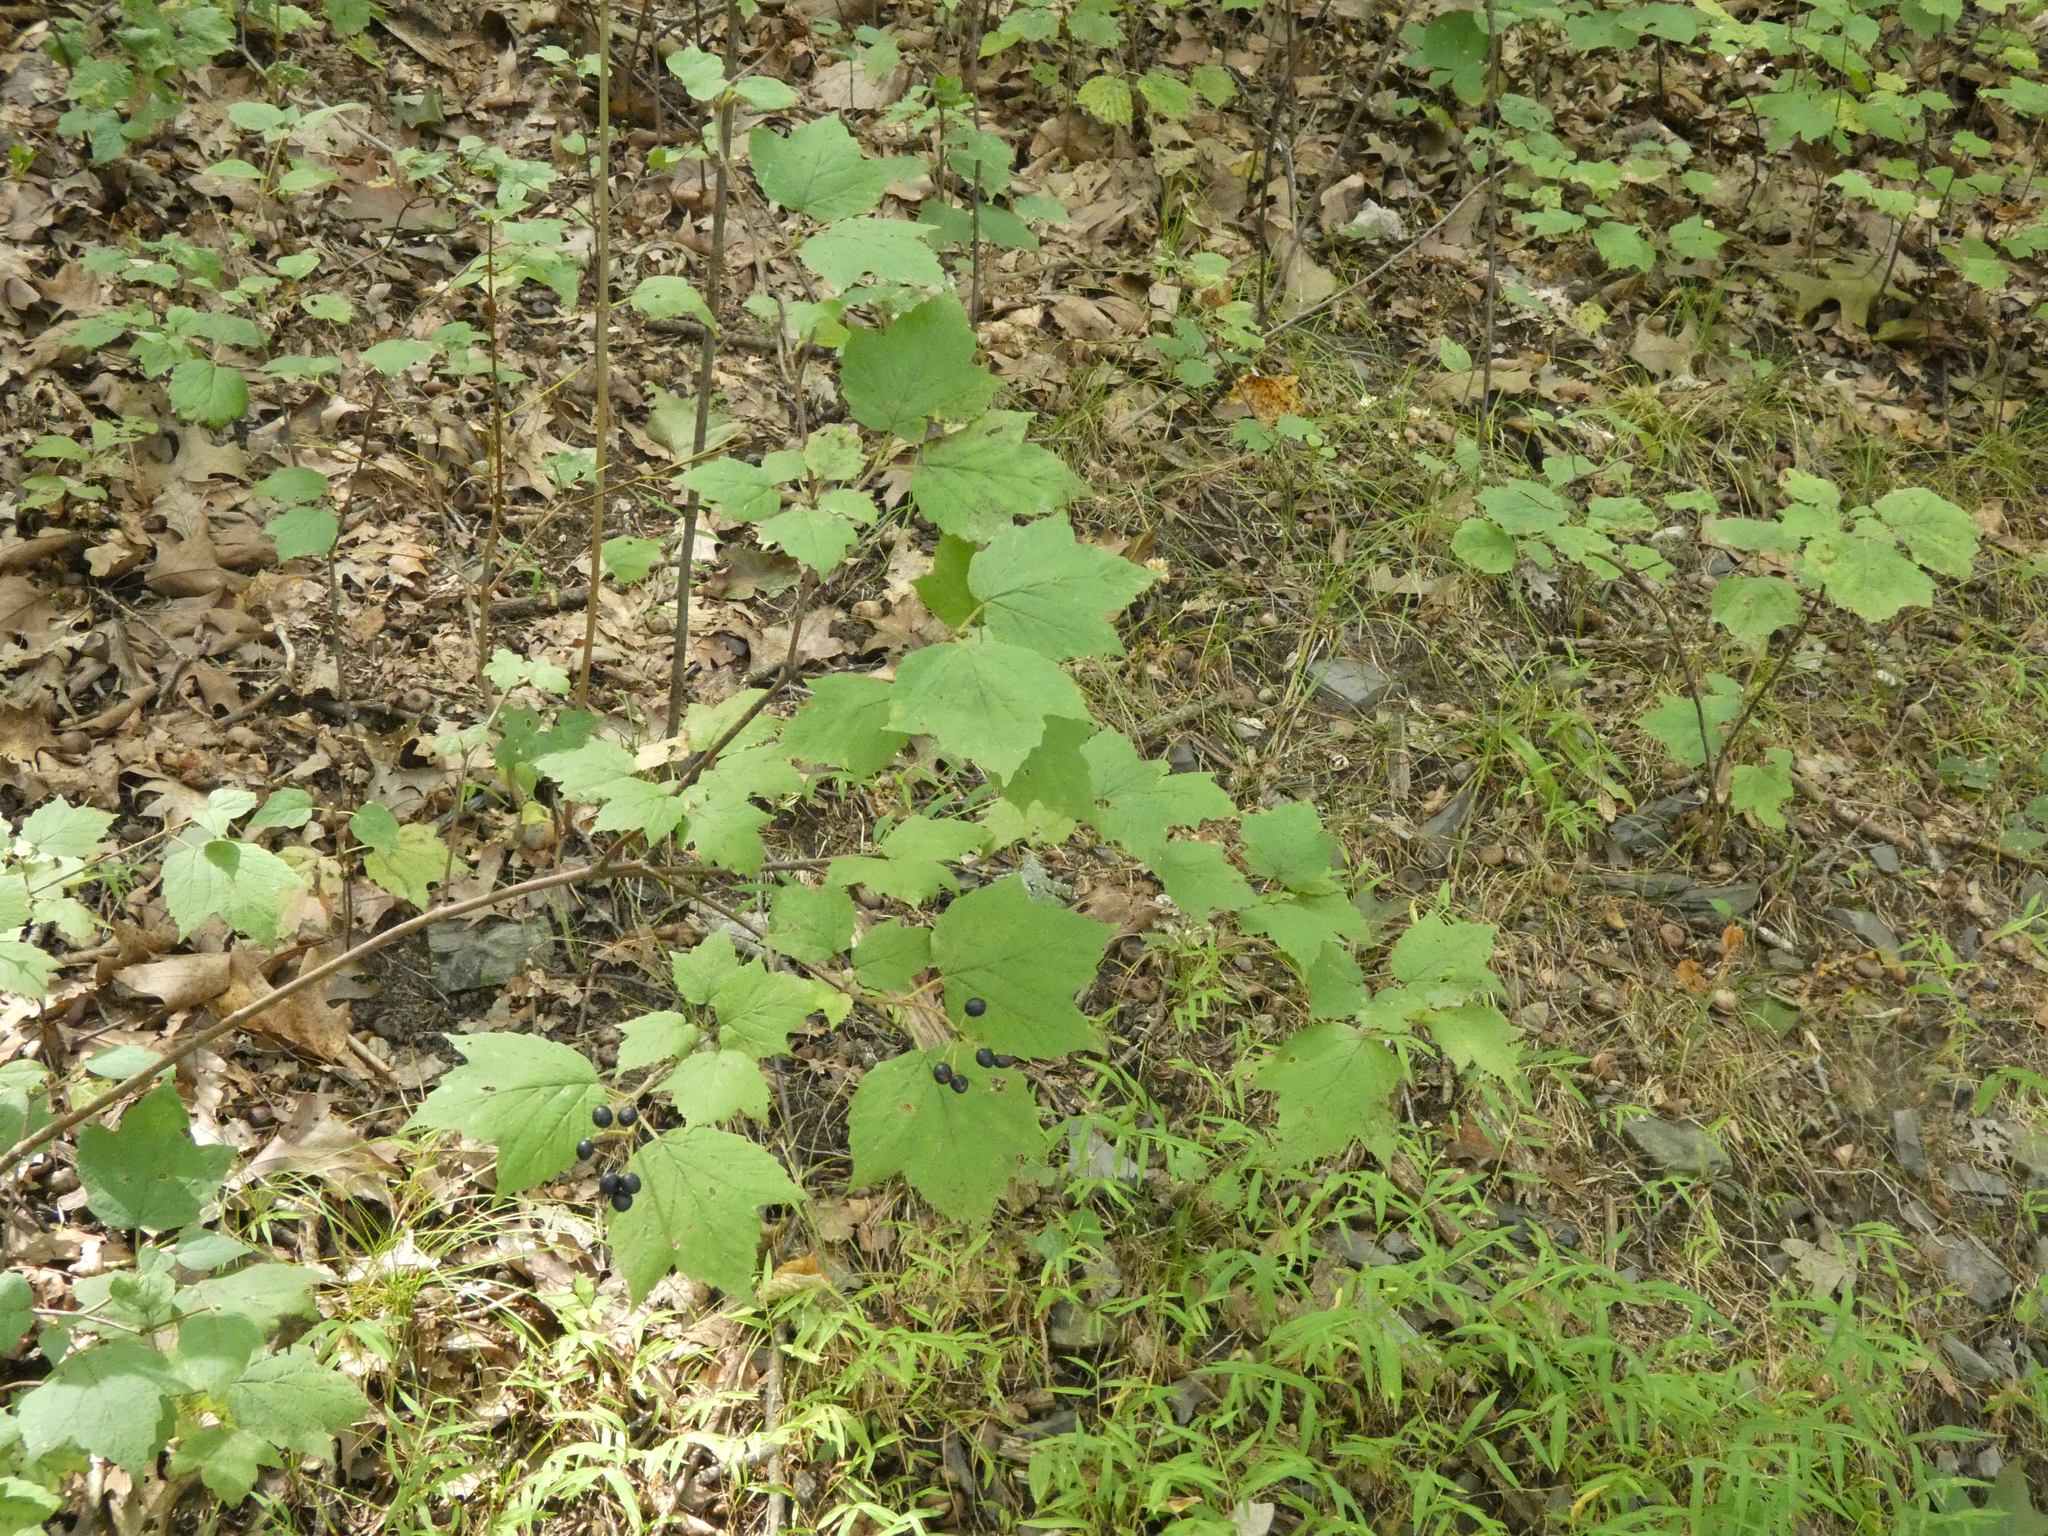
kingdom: Plantae
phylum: Tracheophyta
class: Magnoliopsida
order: Dipsacales
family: Viburnaceae
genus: Viburnum
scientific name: Viburnum acerifolium
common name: Dockmackie
